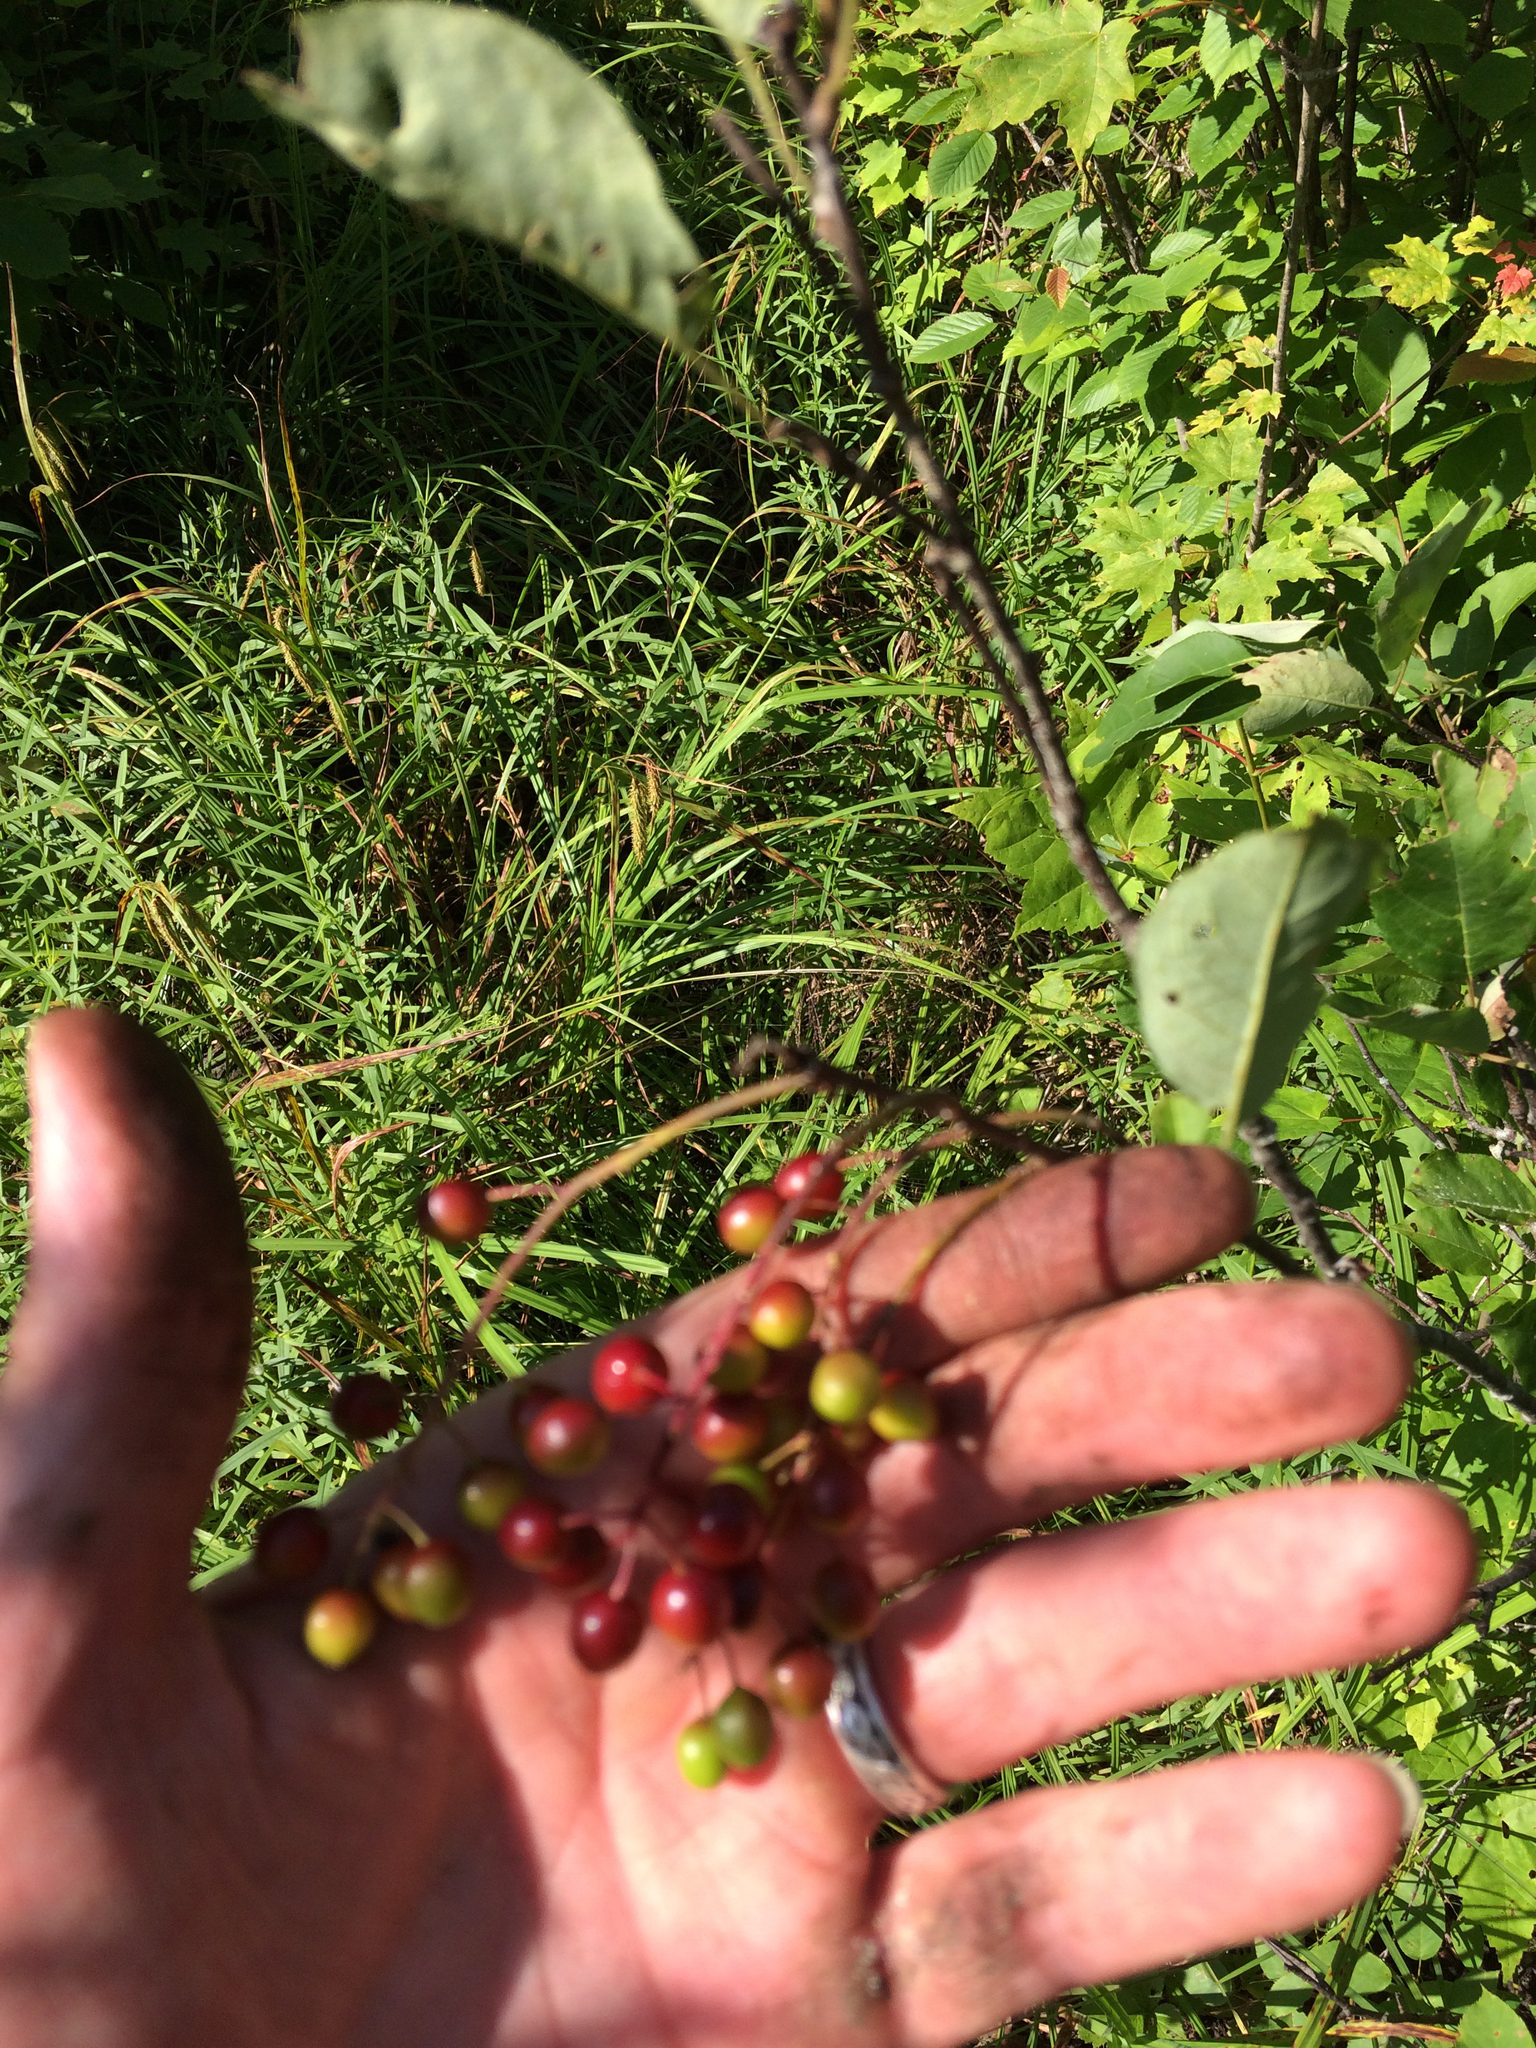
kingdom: Plantae
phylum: Tracheophyta
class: Magnoliopsida
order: Rosales
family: Rosaceae
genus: Prunus
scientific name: Prunus virginiana
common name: Chokecherry
